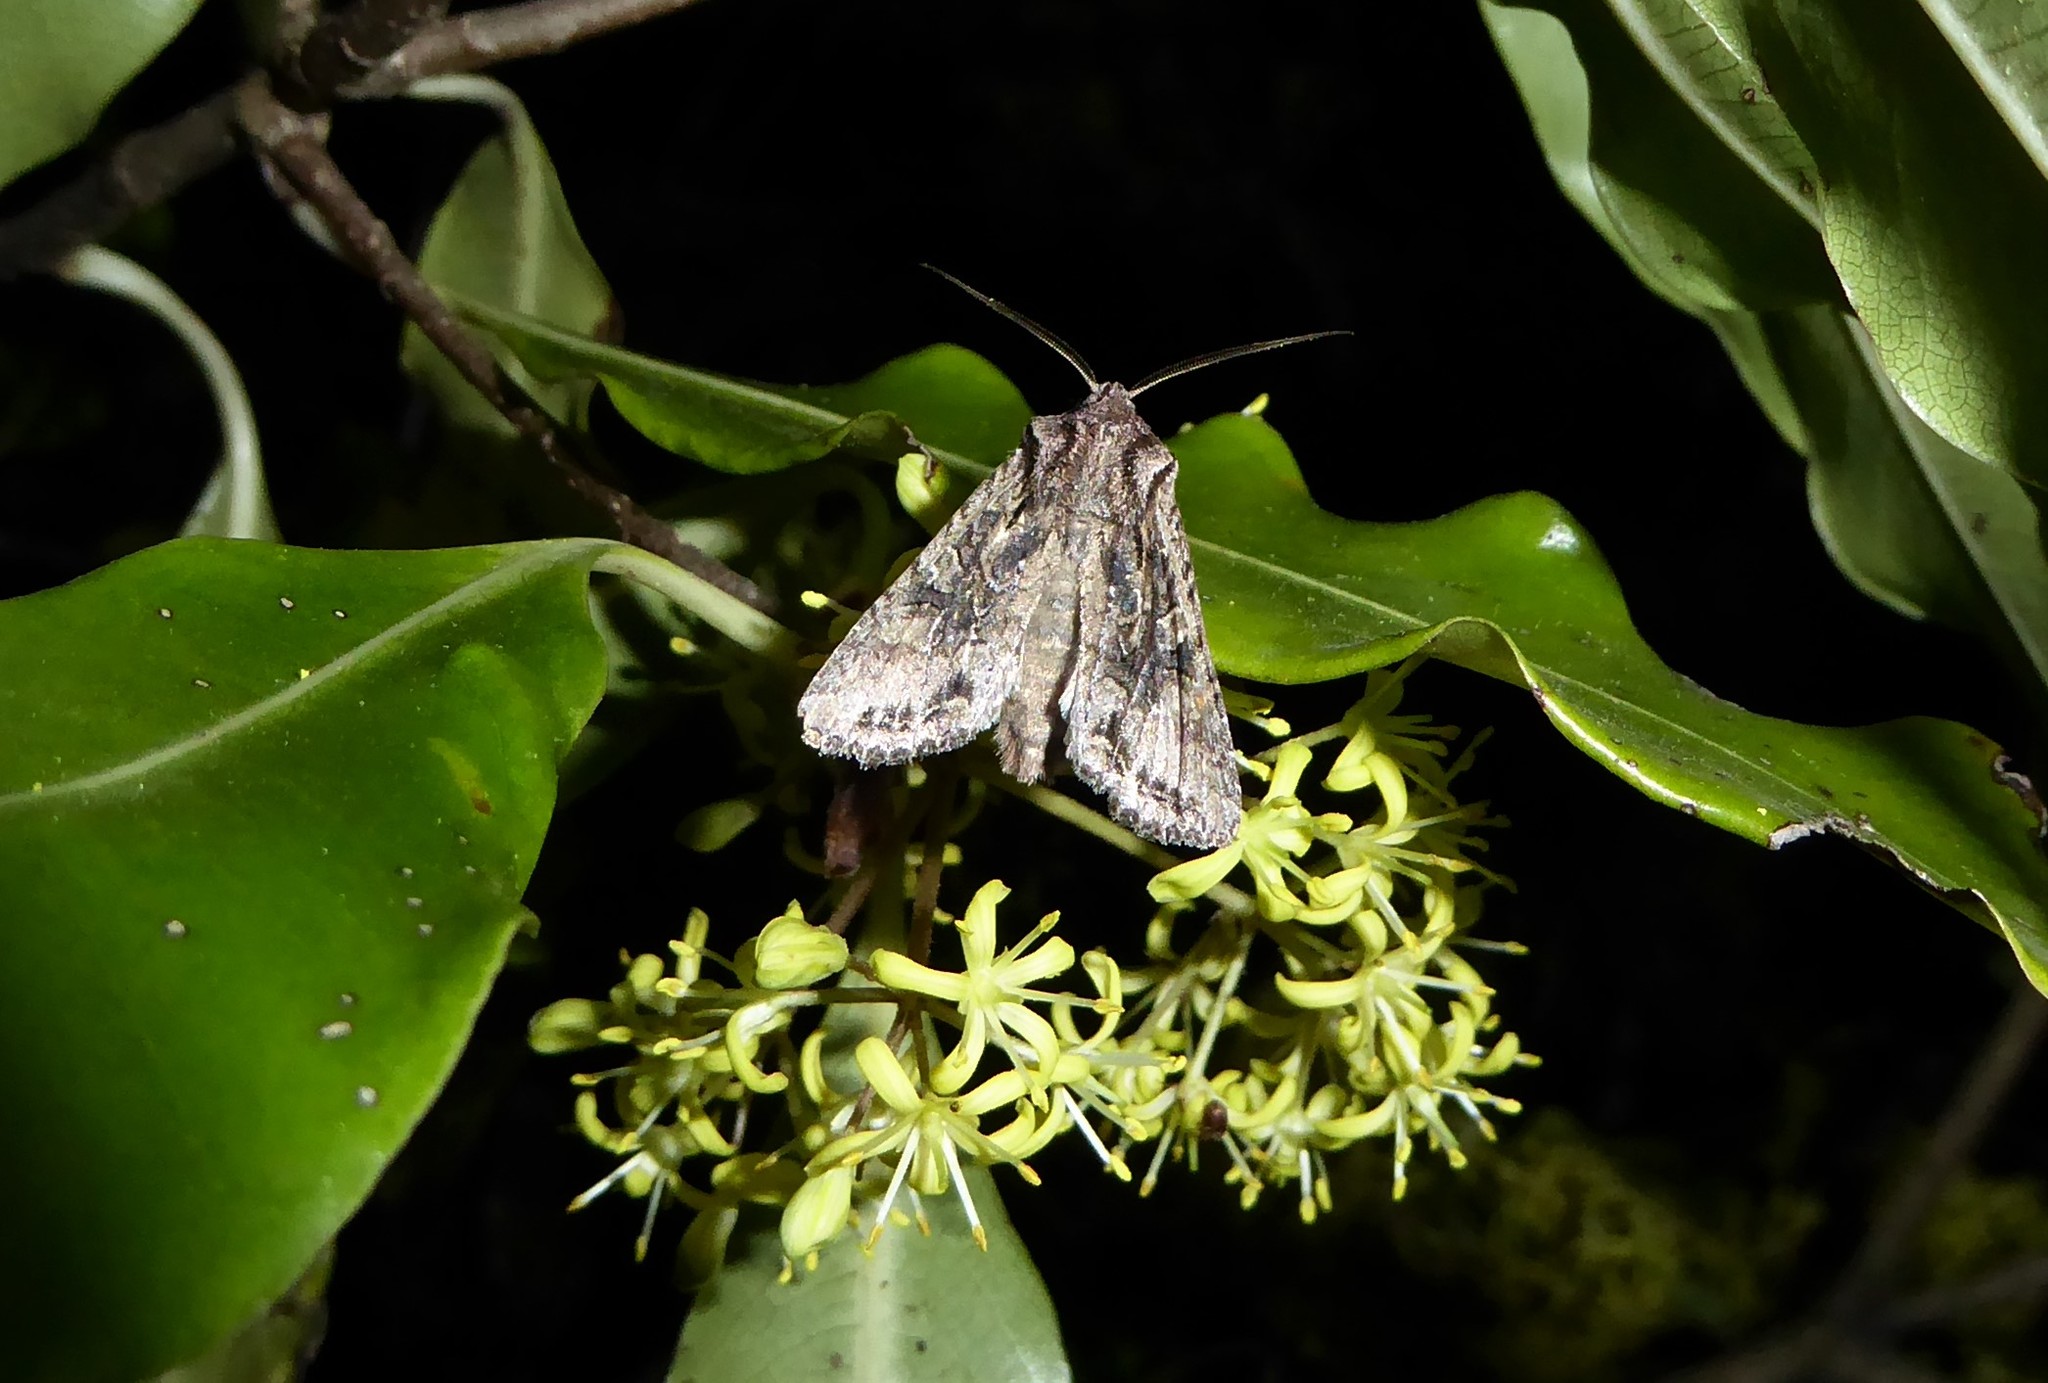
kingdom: Animalia
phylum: Arthropoda
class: Insecta
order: Lepidoptera
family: Noctuidae
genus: Ichneutica
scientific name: Ichneutica mutans
